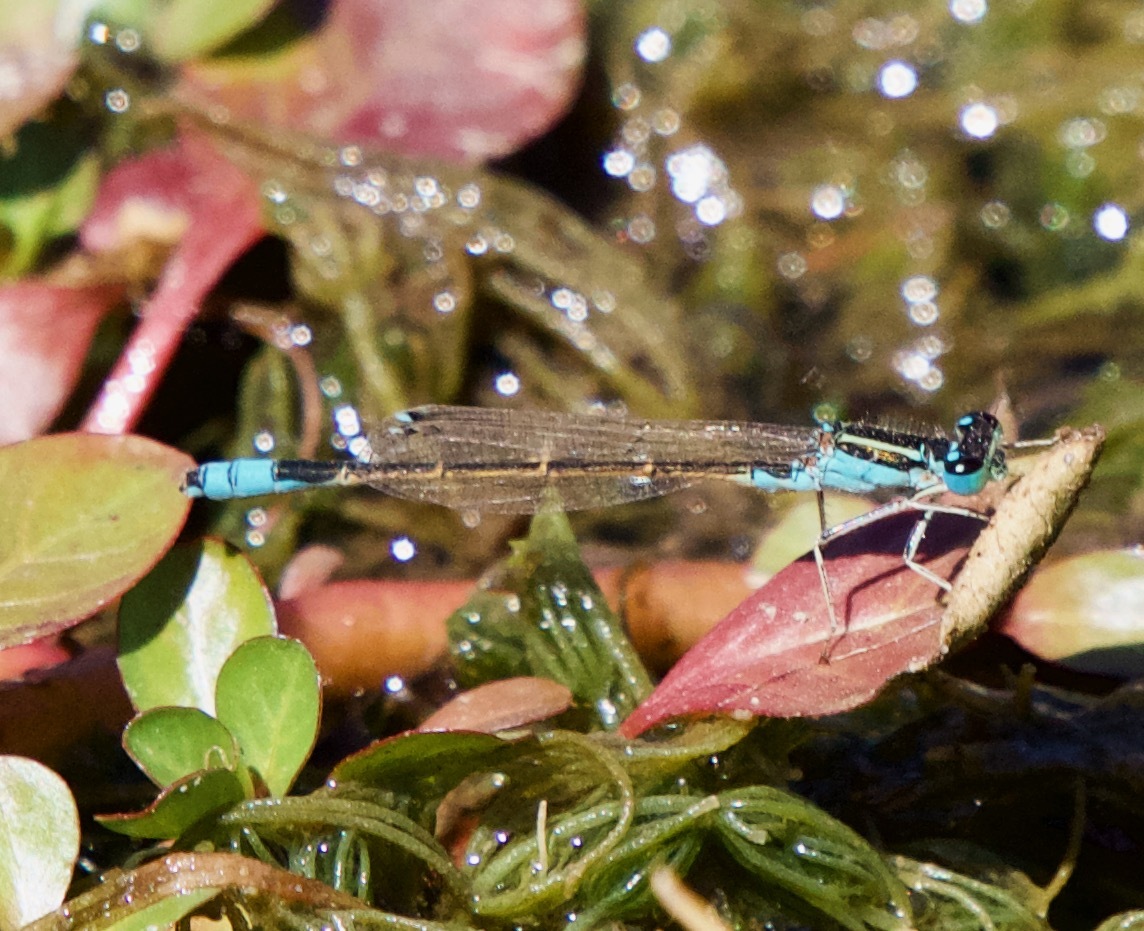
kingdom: Animalia
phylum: Arthropoda
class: Insecta
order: Odonata
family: Coenagrionidae
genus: Ischnura
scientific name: Ischnura fluviatilis
